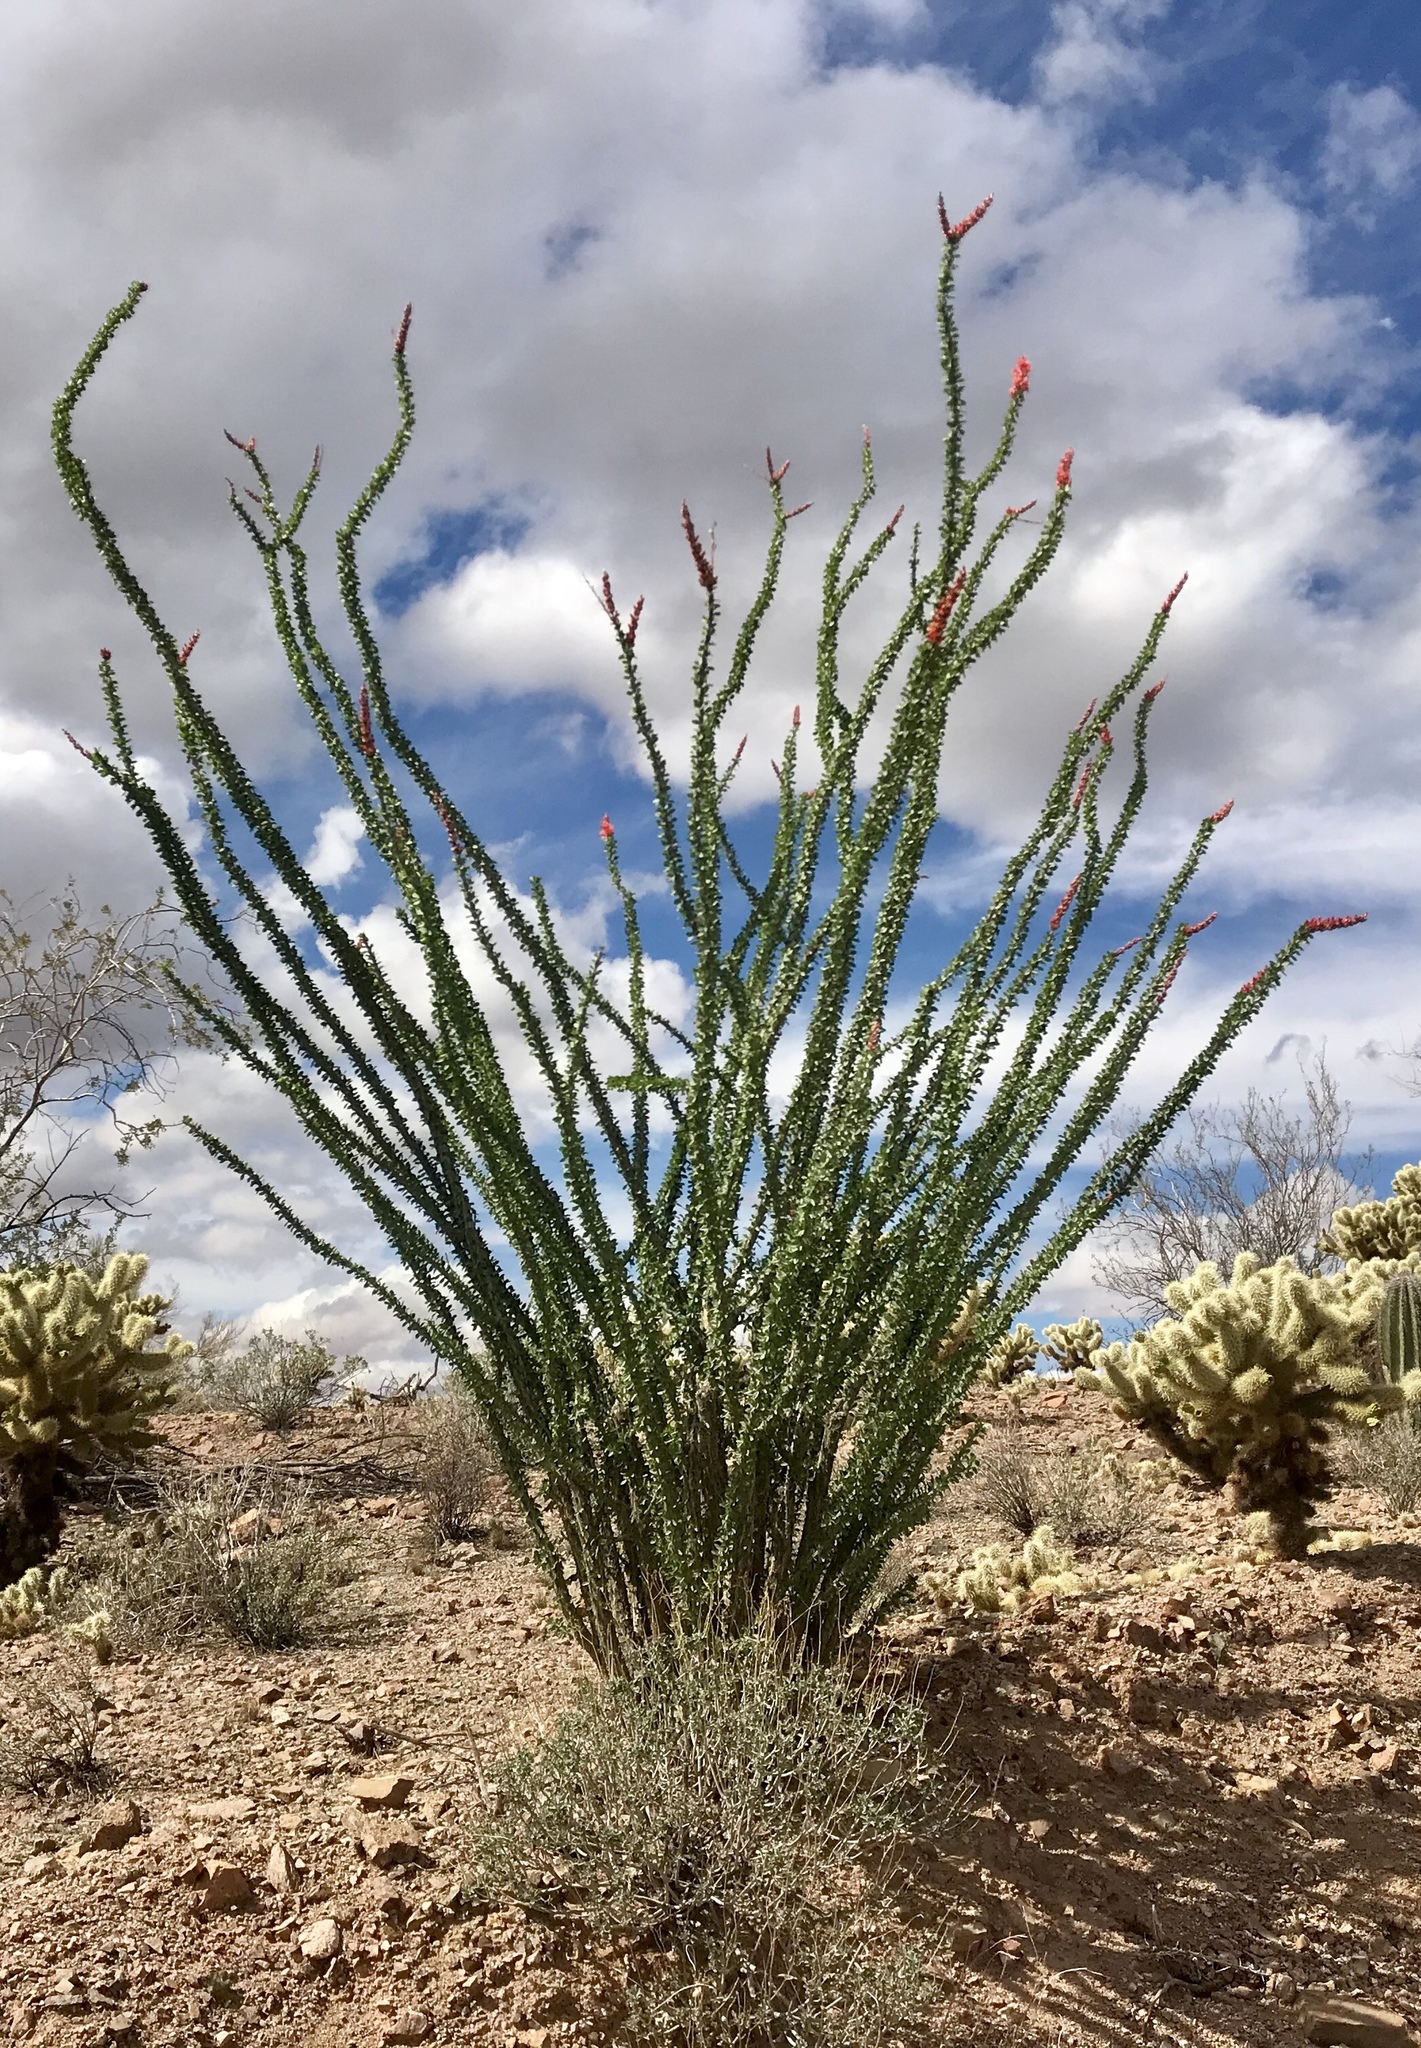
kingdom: Plantae
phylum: Tracheophyta
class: Magnoliopsida
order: Ericales
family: Fouquieriaceae
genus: Fouquieria
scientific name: Fouquieria splendens
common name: Vine-cactus
